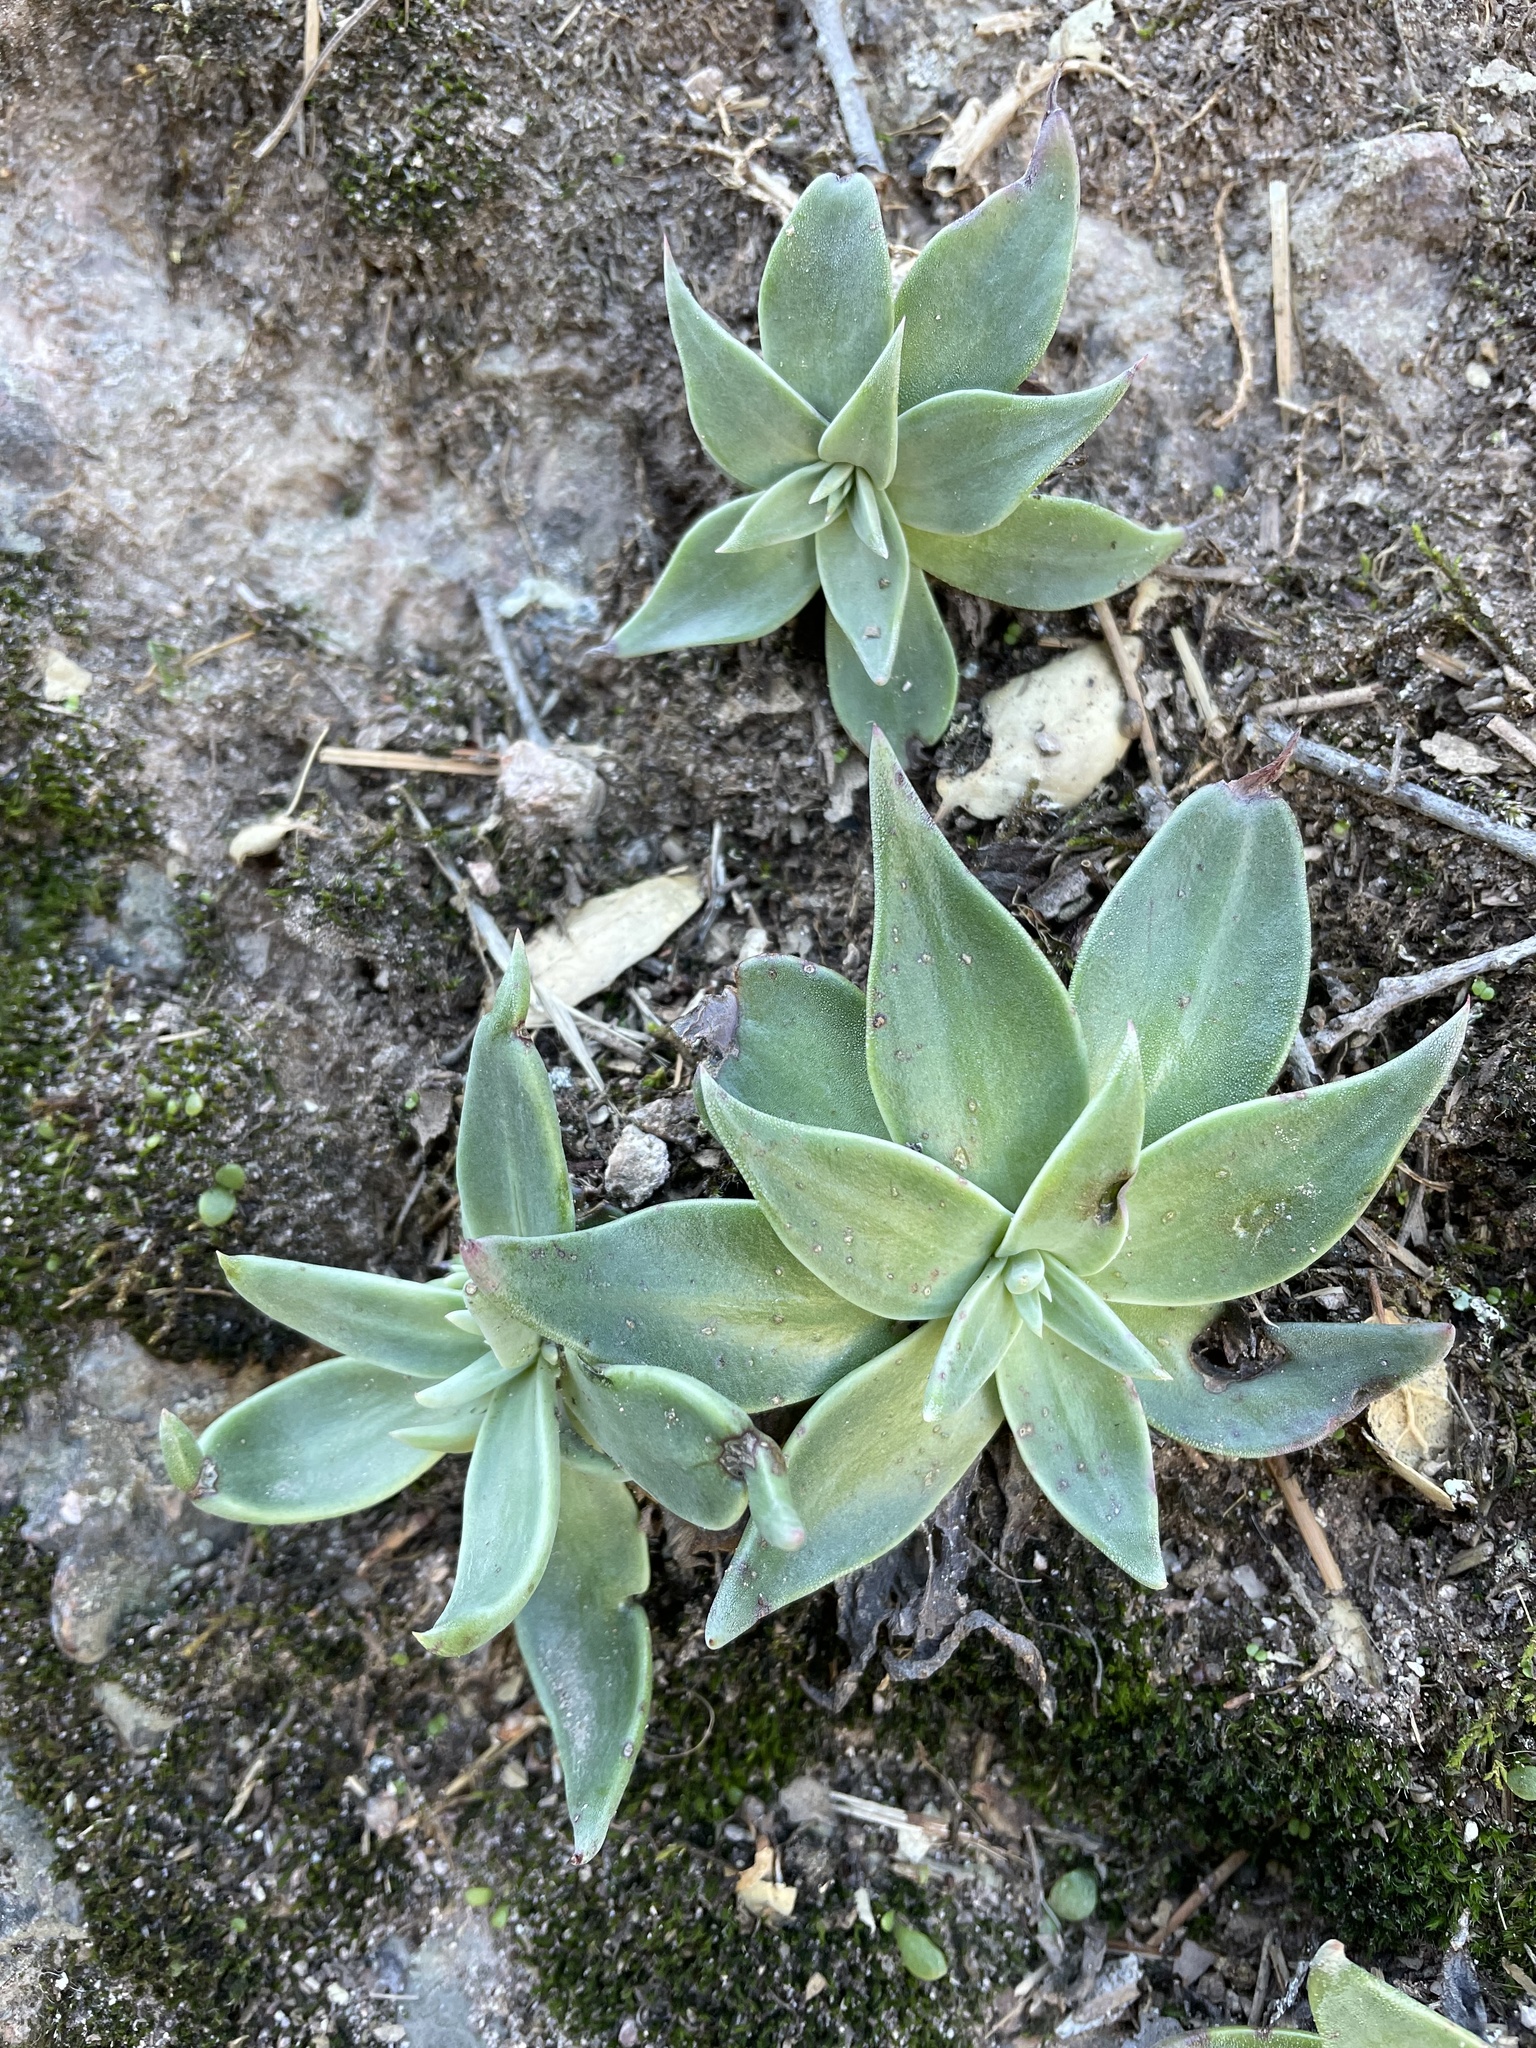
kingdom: Plantae
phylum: Tracheophyta
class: Magnoliopsida
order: Saxifragales
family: Crassulaceae
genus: Dudleya
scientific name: Dudleya cymosa
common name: Canyon dudleya
